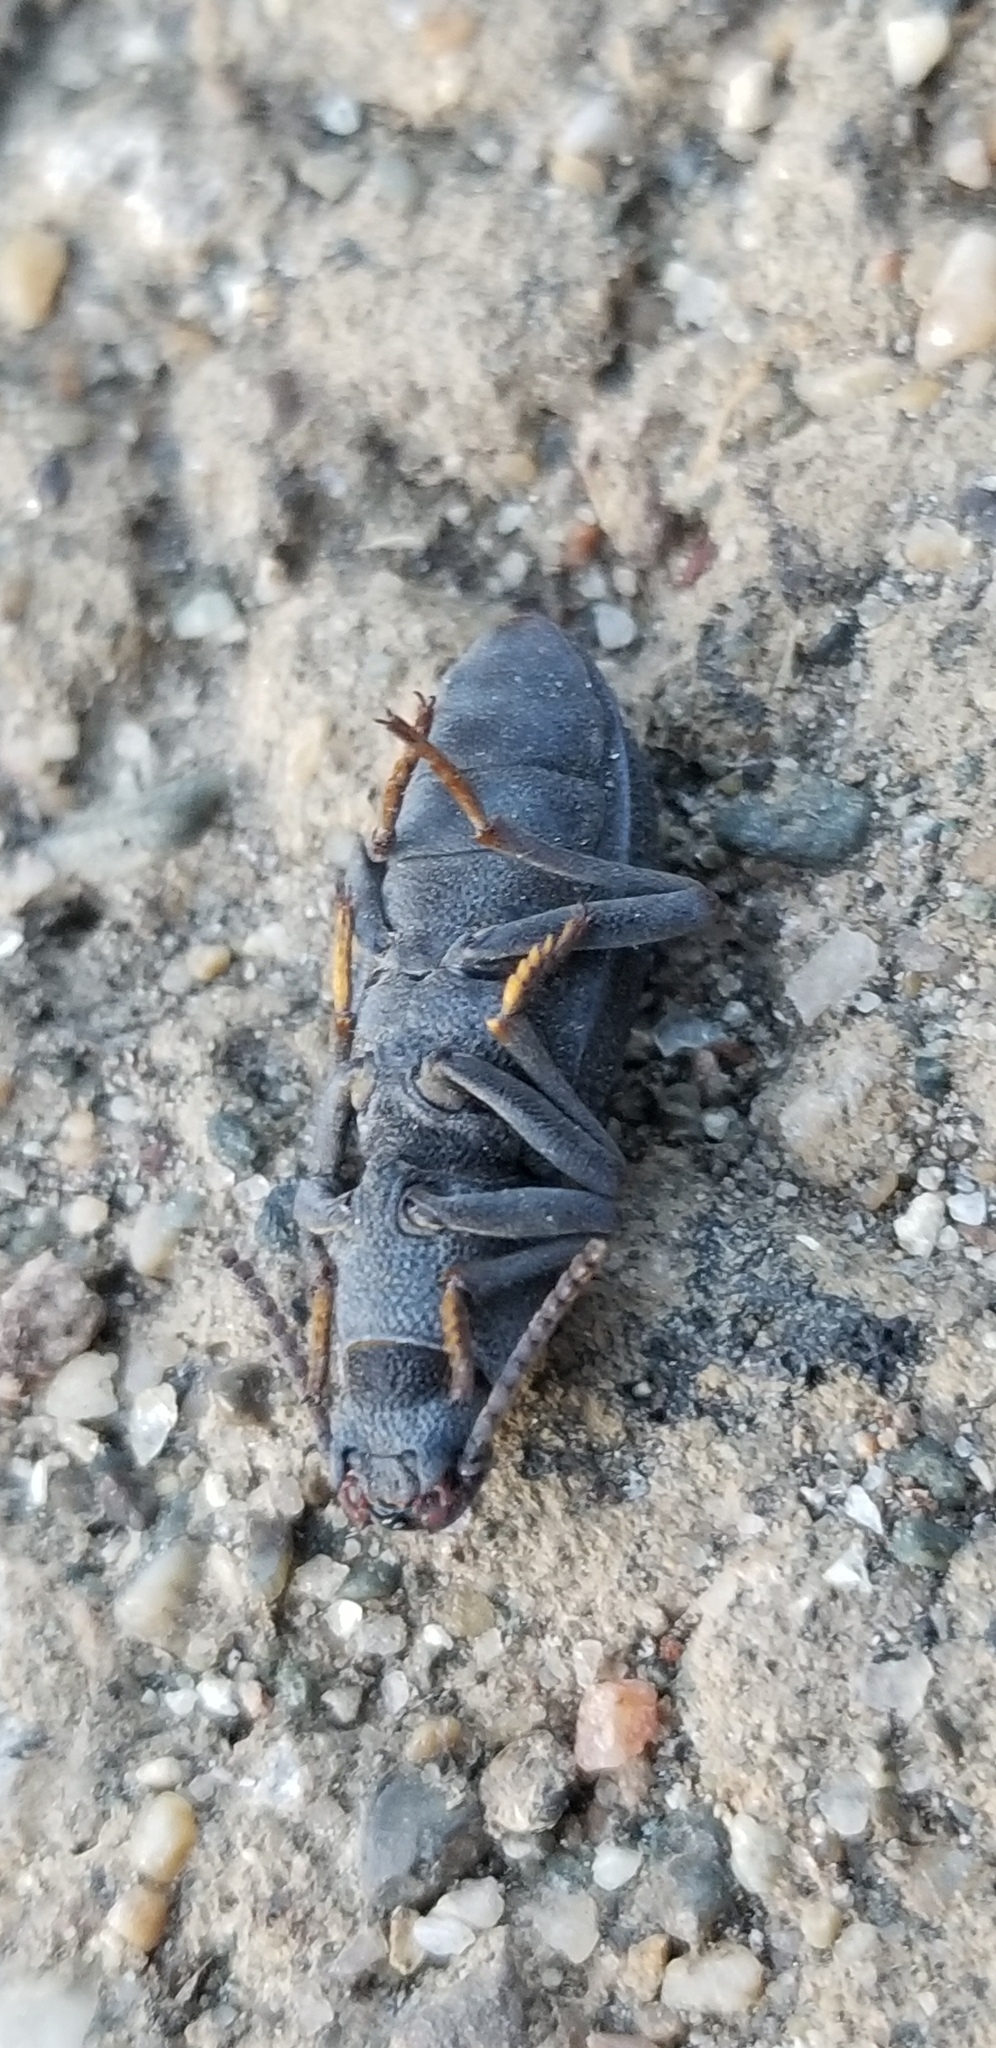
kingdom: Animalia
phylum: Arthropoda
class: Insecta
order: Coleoptera
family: Tenebrionidae
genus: Nyctoporis
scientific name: Nyctoporis carinata
